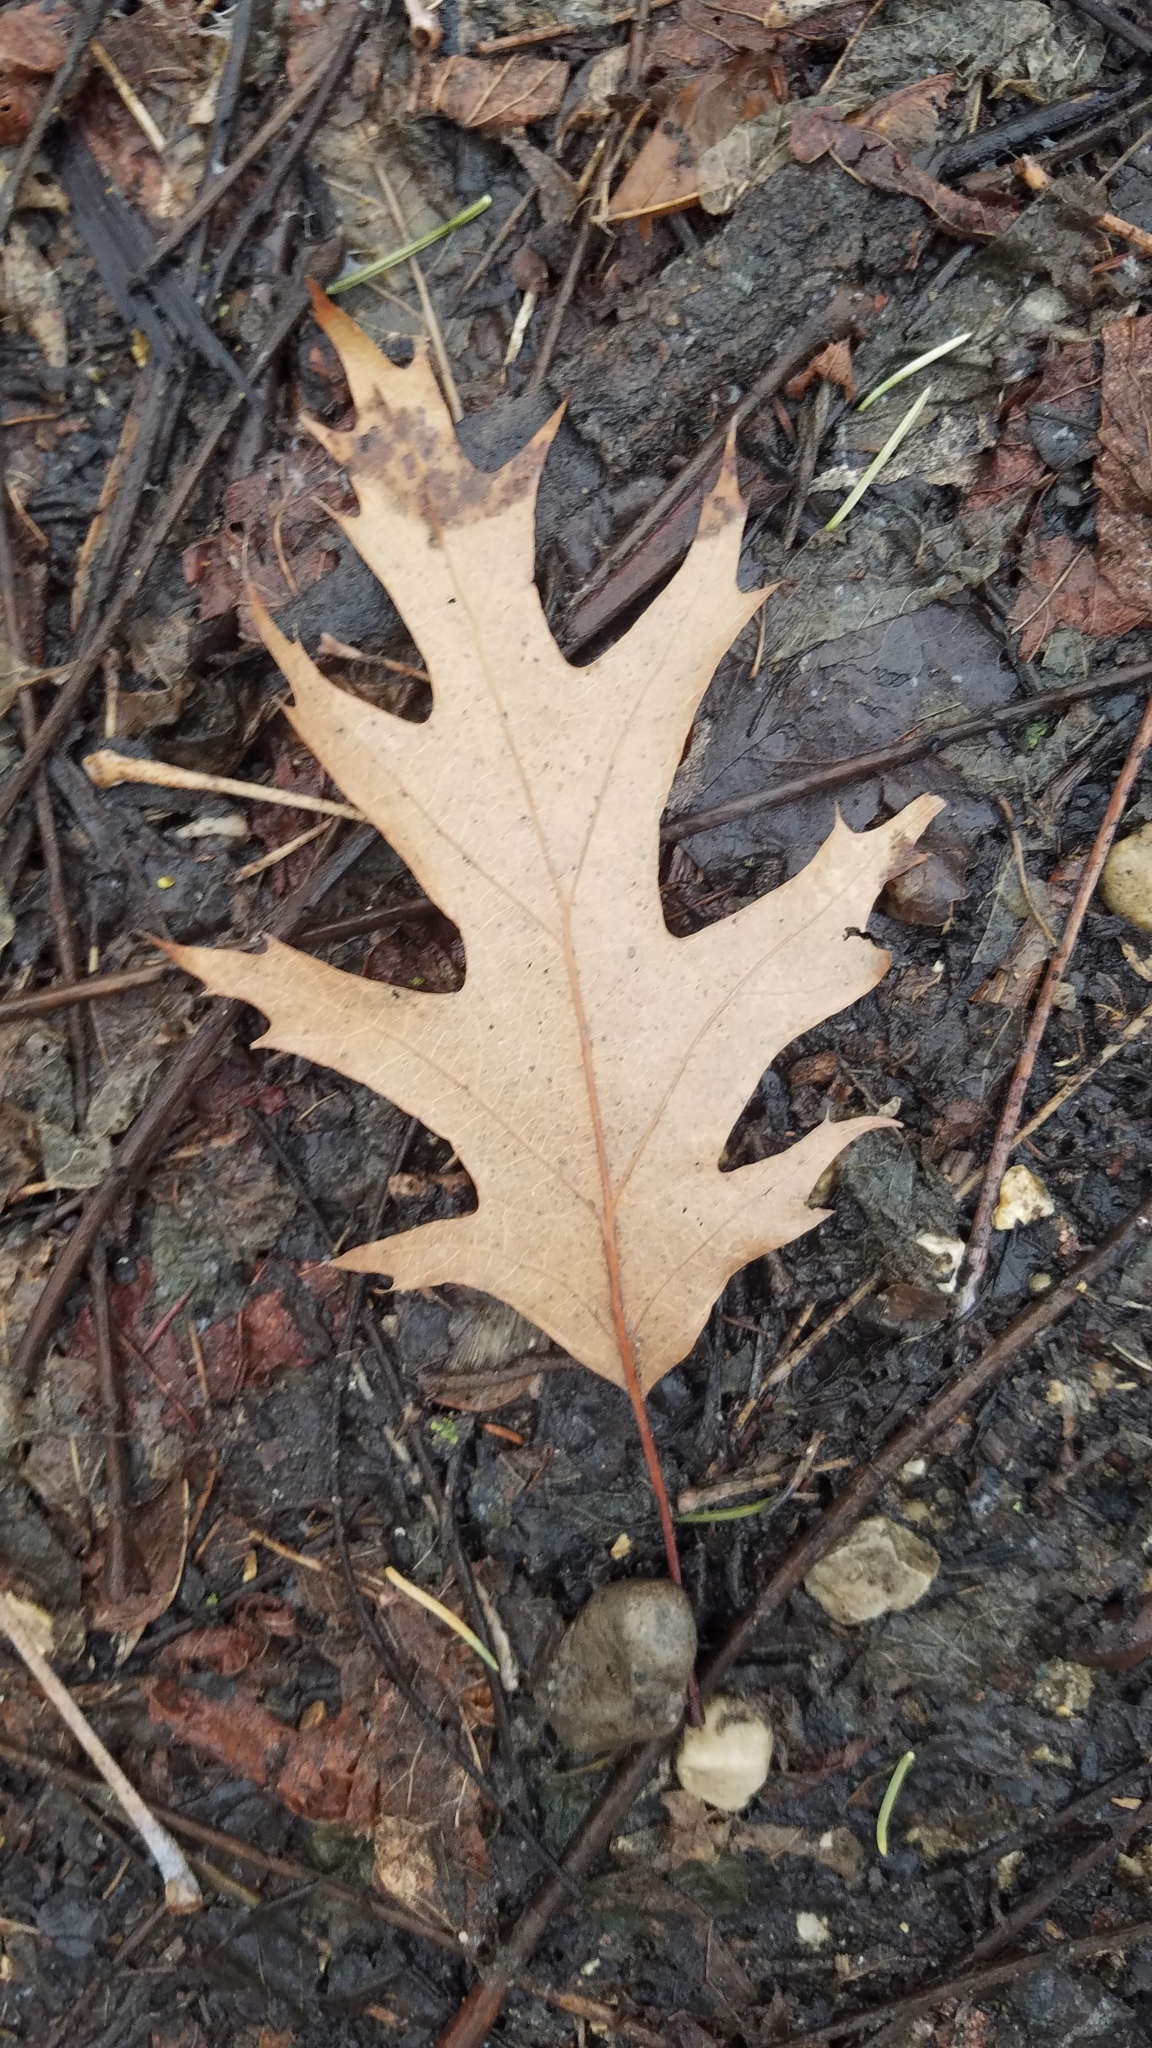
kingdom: Plantae
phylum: Tracheophyta
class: Magnoliopsida
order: Fagales
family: Fagaceae
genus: Quercus
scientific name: Quercus rubra
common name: Red oak
